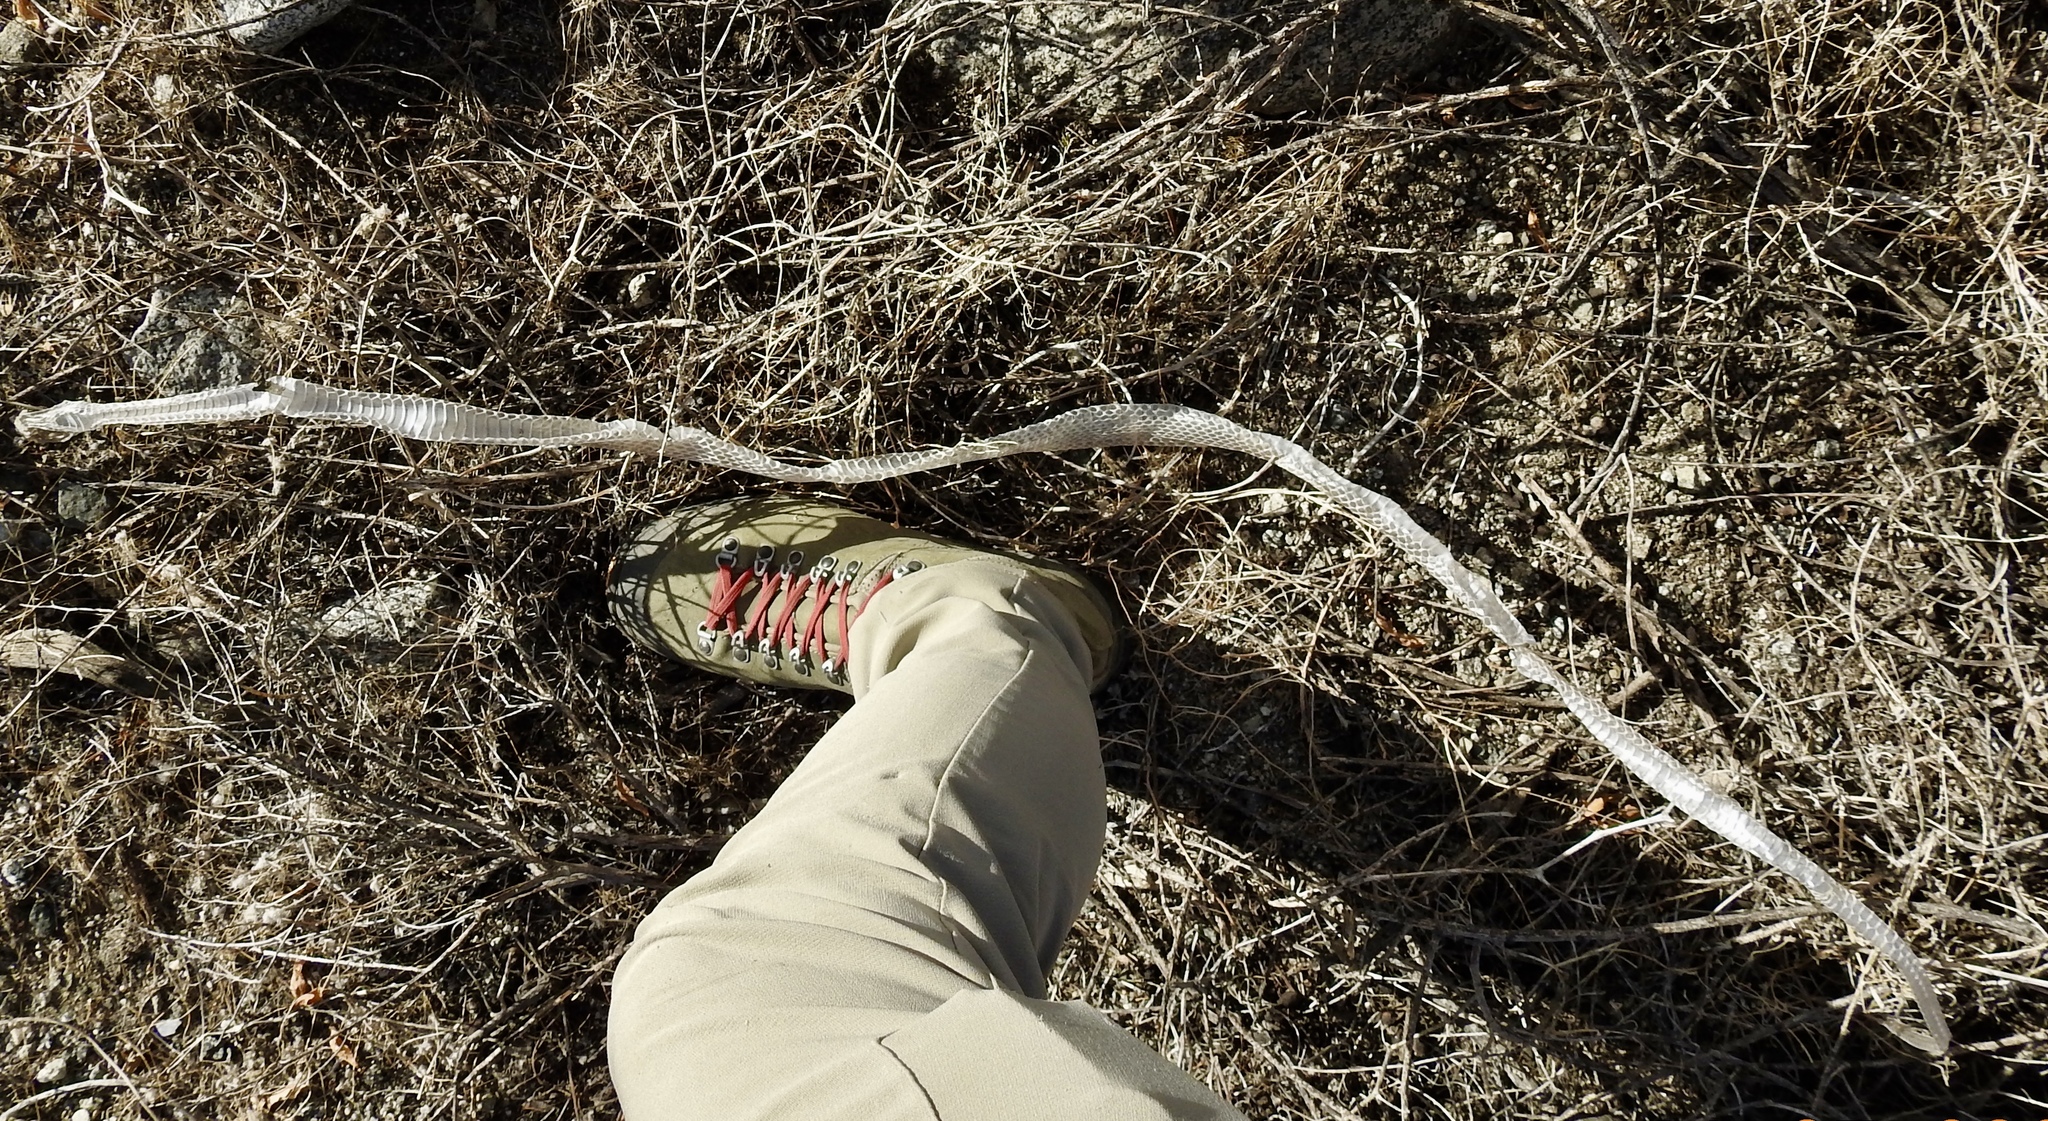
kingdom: Animalia
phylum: Chordata
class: Squamata
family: Colubridae
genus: Masticophis
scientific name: Masticophis flagellum
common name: Coachwhip
